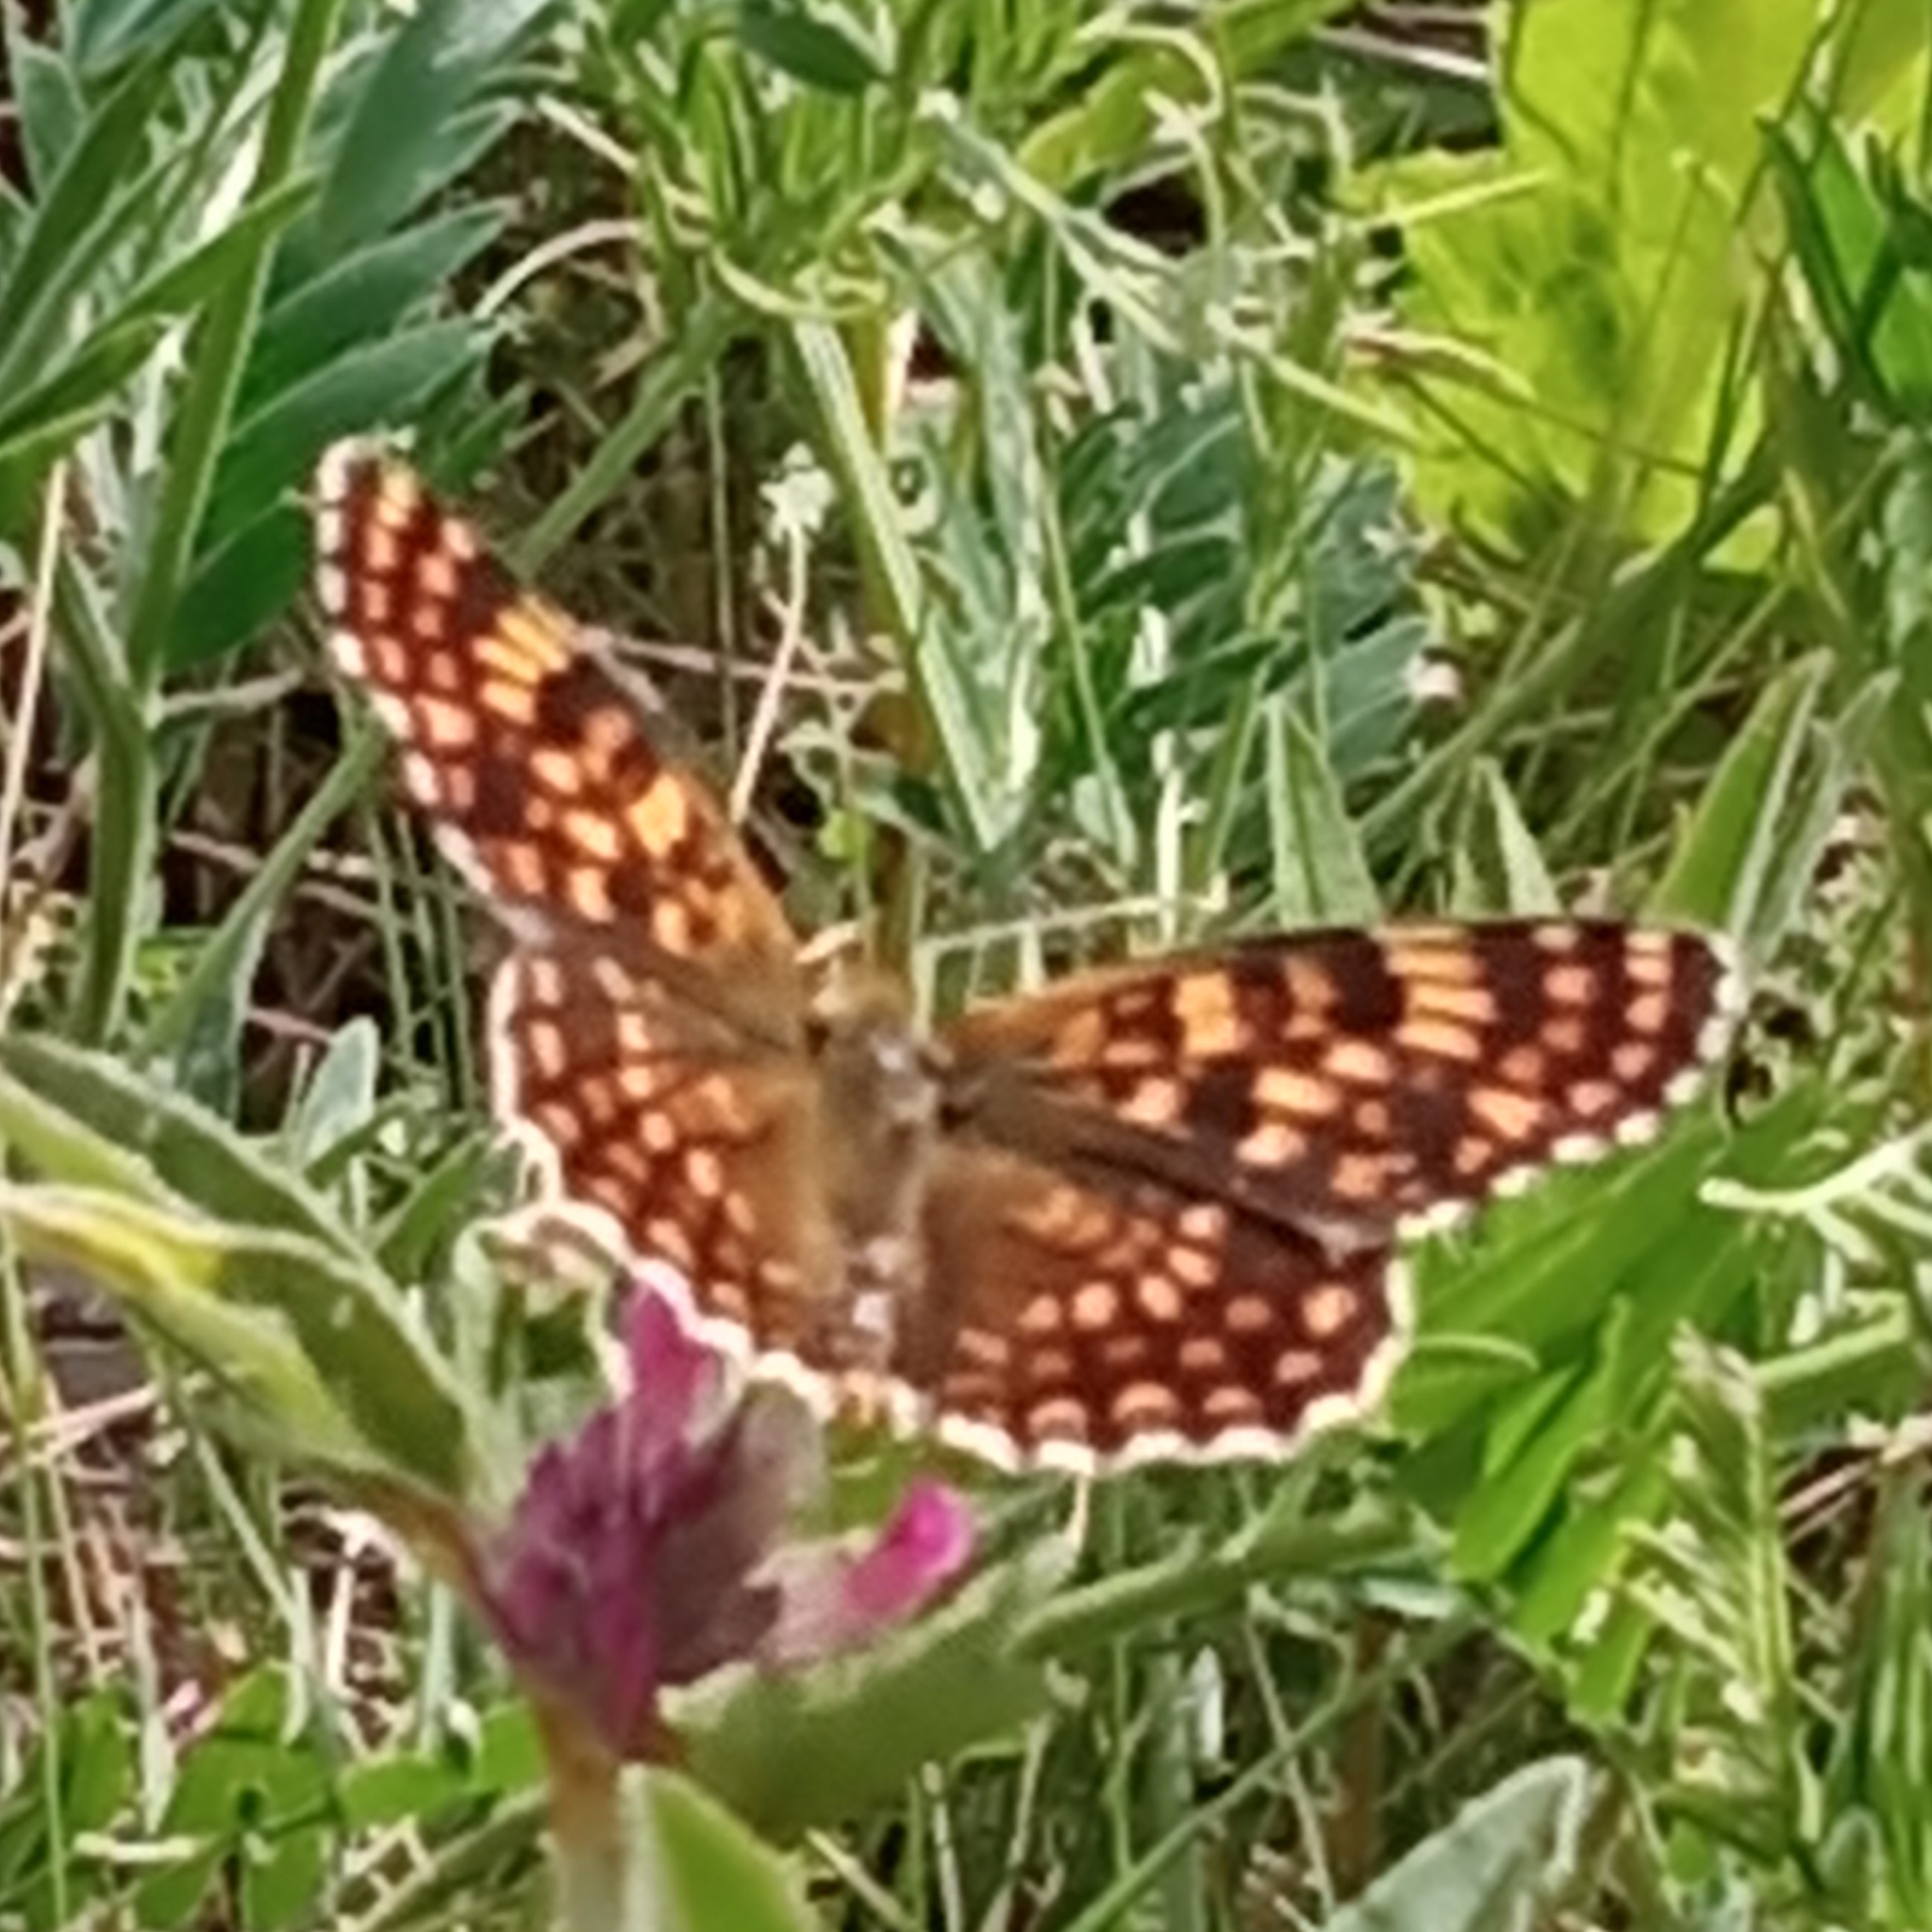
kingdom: Animalia
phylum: Arthropoda
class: Insecta
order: Lepidoptera
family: Nymphalidae
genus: Melitaea
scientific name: Melitaea phoebe
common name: Knapweed fritillary
